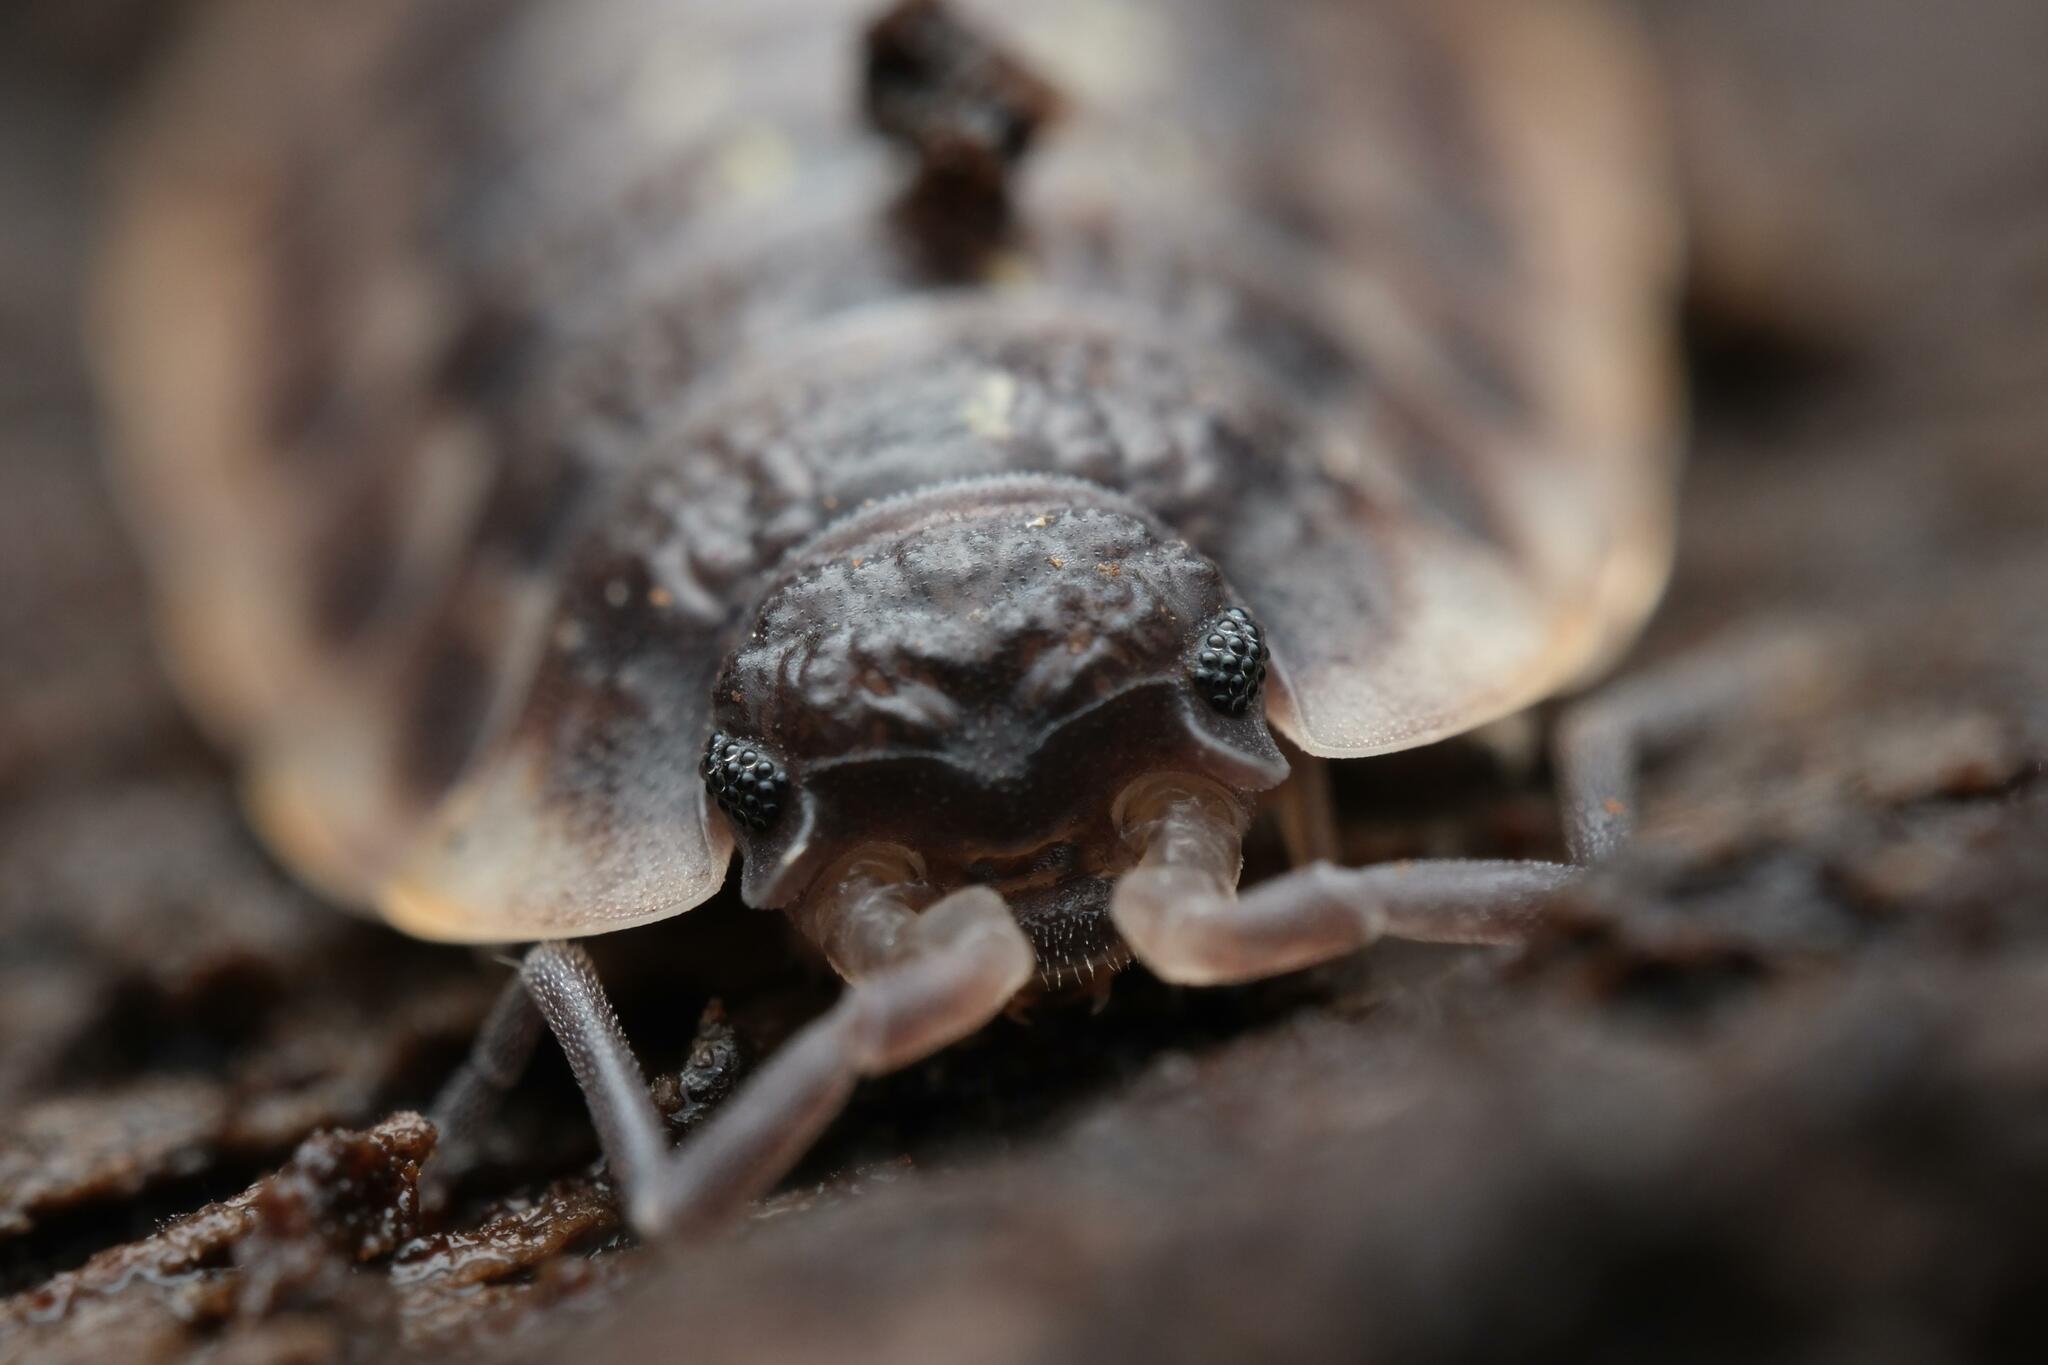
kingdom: Animalia
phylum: Arthropoda
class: Malacostraca
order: Isopoda
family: Oniscidae
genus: Oniscus
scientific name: Oniscus asellus
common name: Common shiny woodlouse
